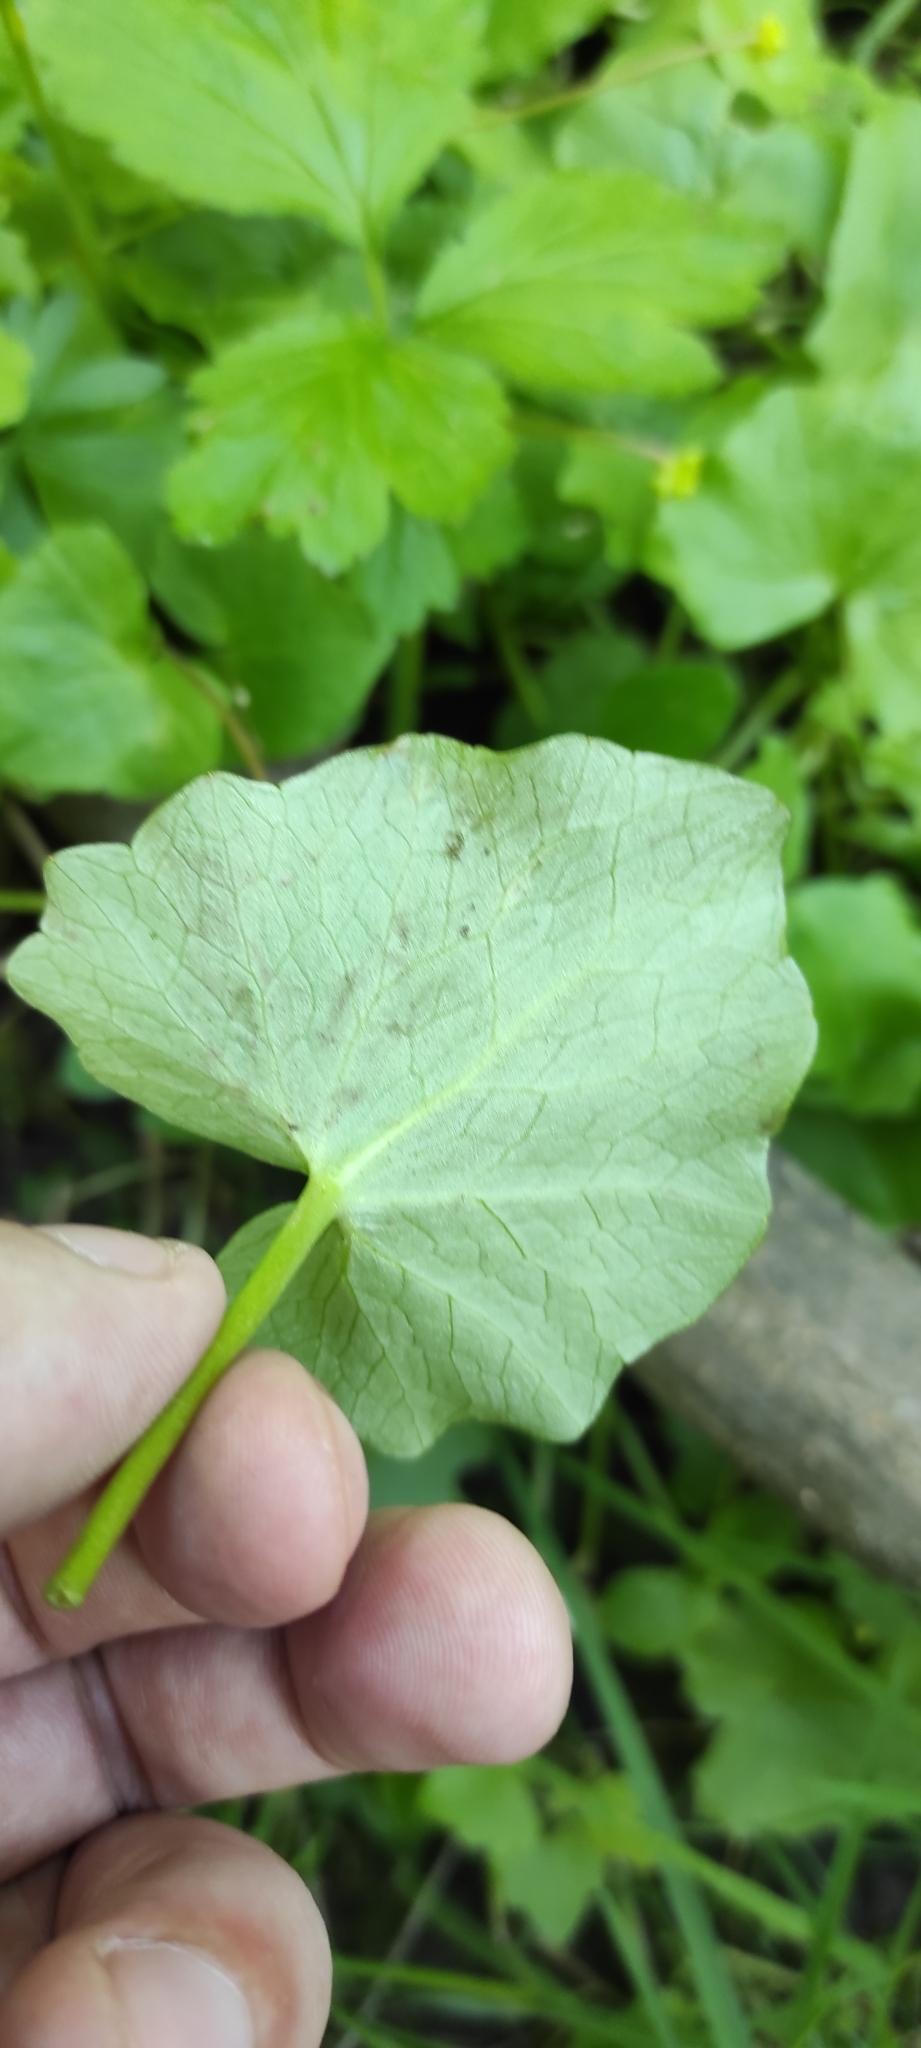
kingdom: Plantae
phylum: Tracheophyta
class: Magnoliopsida
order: Ranunculales
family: Ranunculaceae
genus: Ficaria
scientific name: Ficaria verna
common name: Lesser celandine
